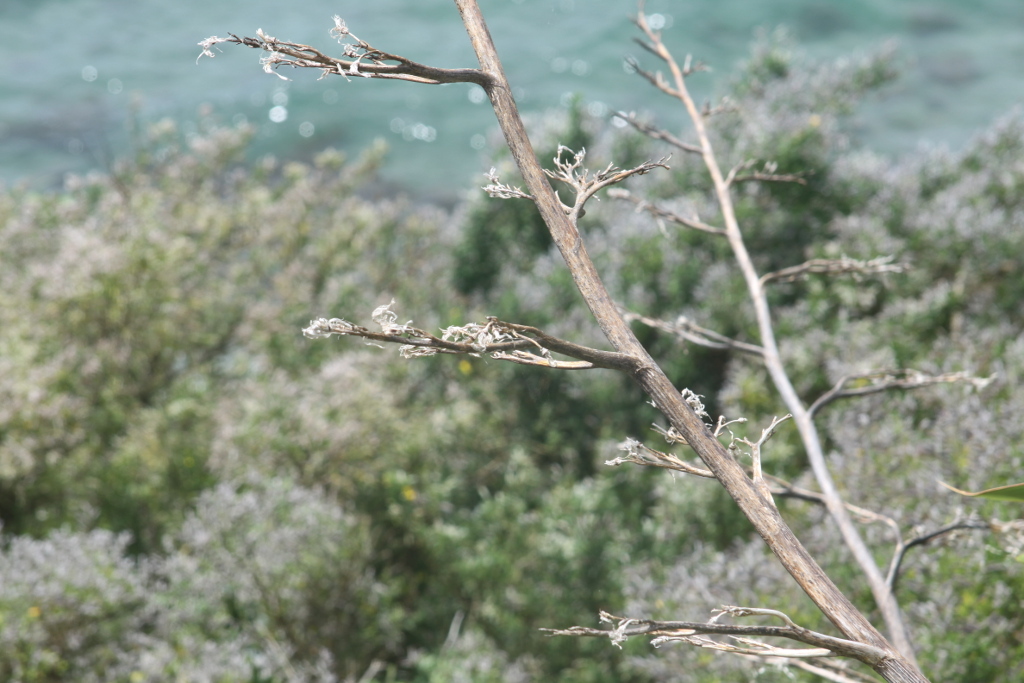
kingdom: Plantae
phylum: Tracheophyta
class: Liliopsida
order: Asparagales
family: Asphodelaceae
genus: Phormium
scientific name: Phormium colensoi
